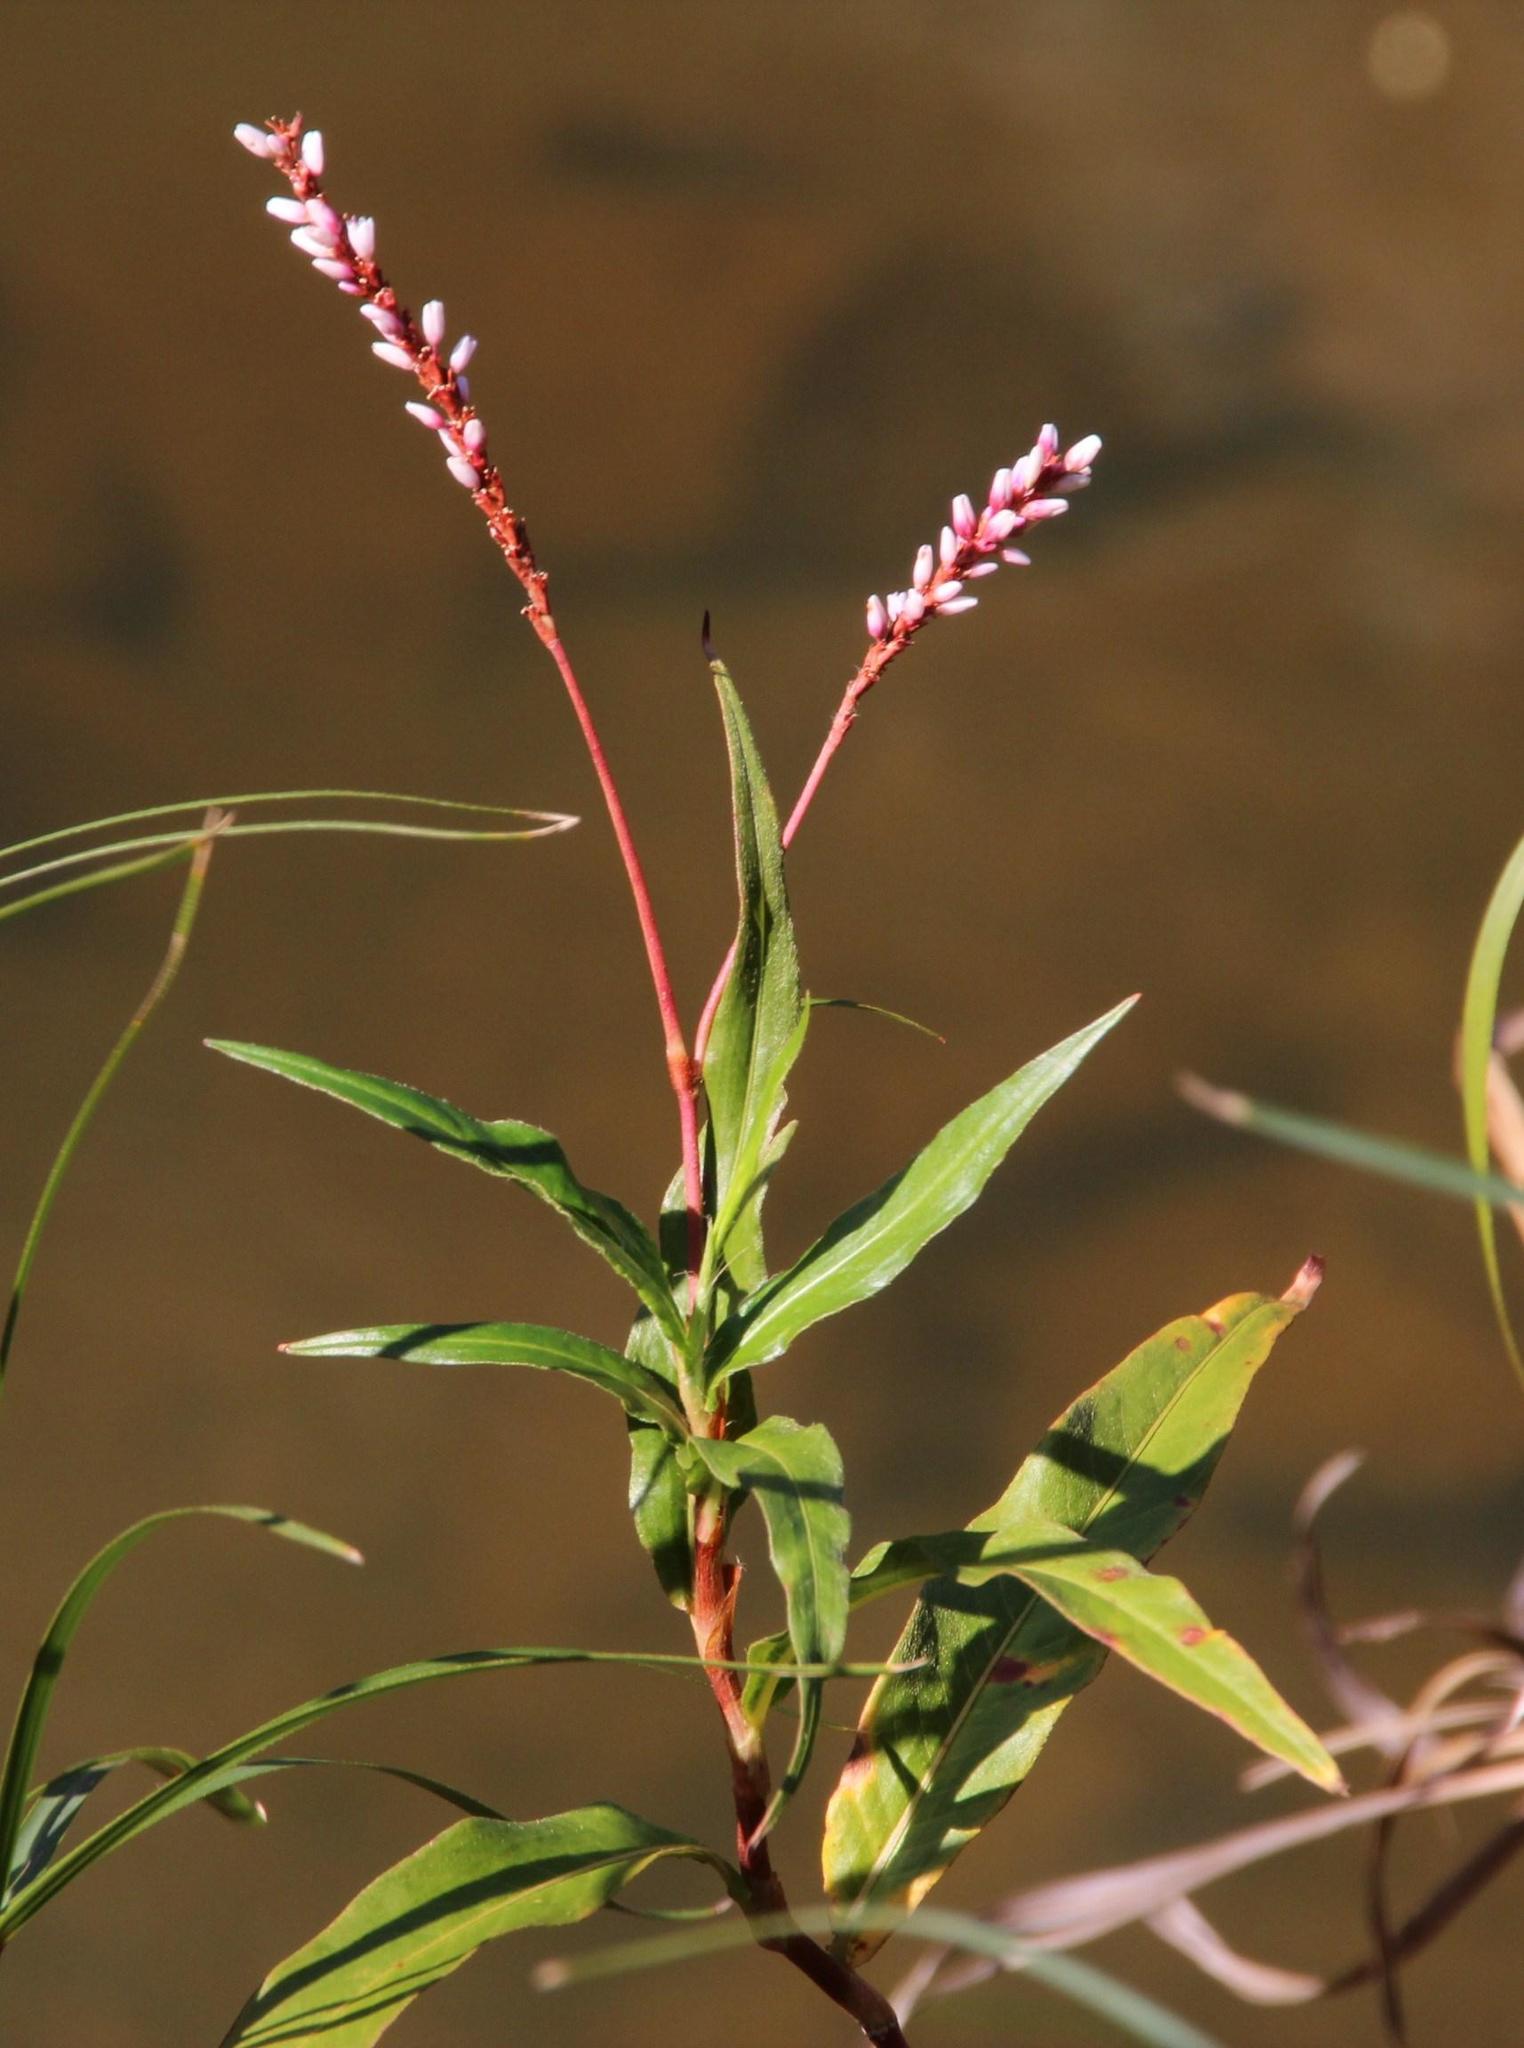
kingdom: Plantae
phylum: Tracheophyta
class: Magnoliopsida
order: Caryophyllales
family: Polygonaceae
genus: Persicaria
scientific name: Persicaria decipiens
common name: Willow-weed
